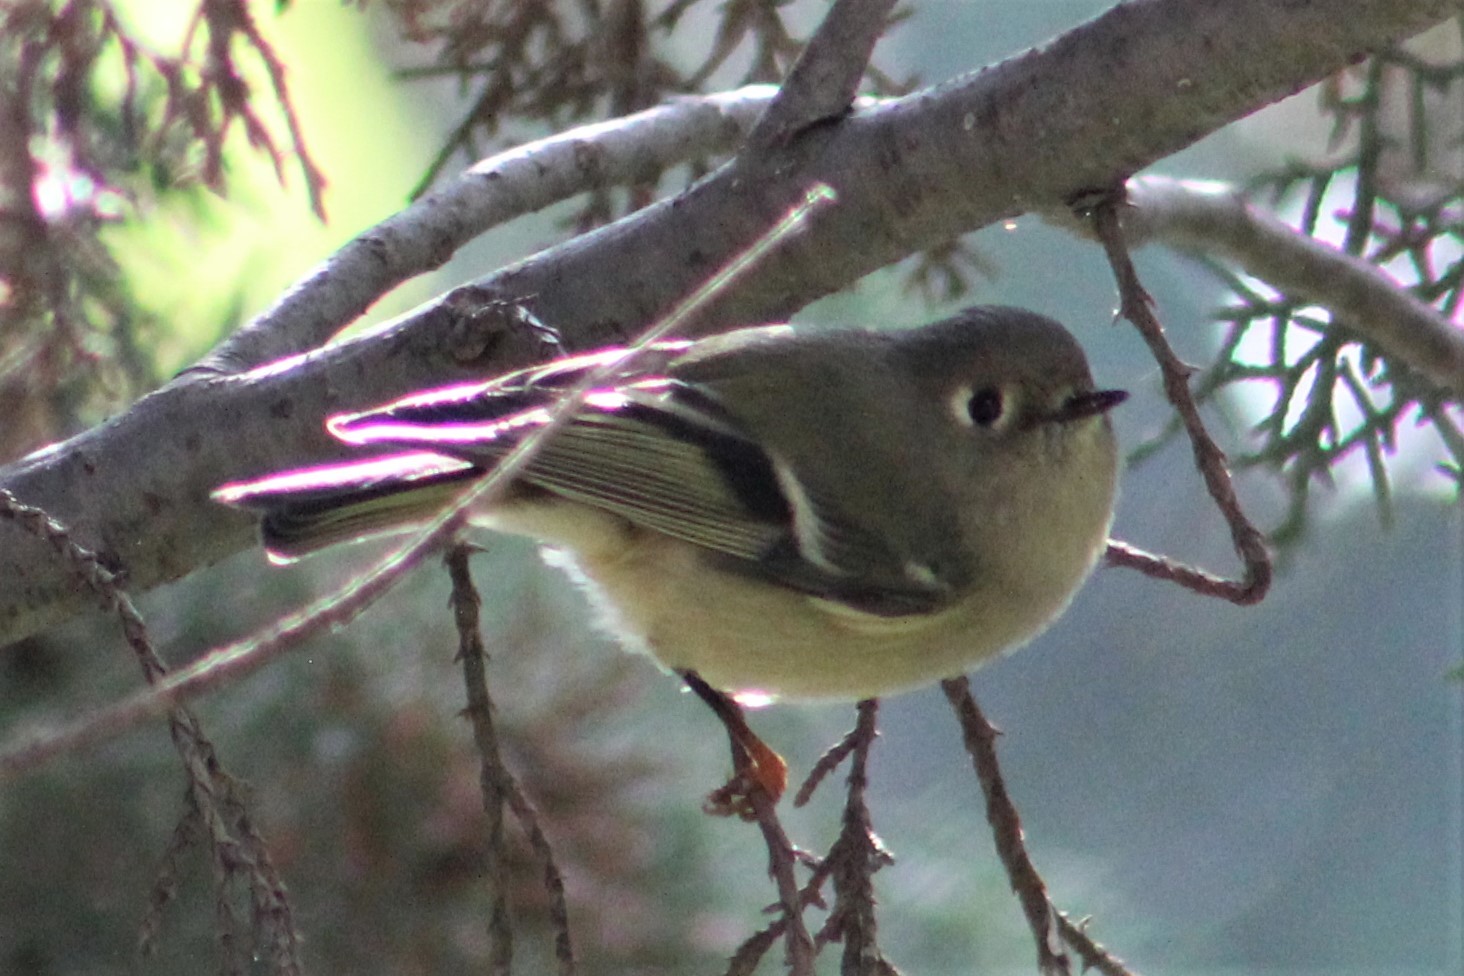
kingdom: Animalia
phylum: Chordata
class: Aves
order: Passeriformes
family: Regulidae
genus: Regulus
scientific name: Regulus calendula
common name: Ruby-crowned kinglet
